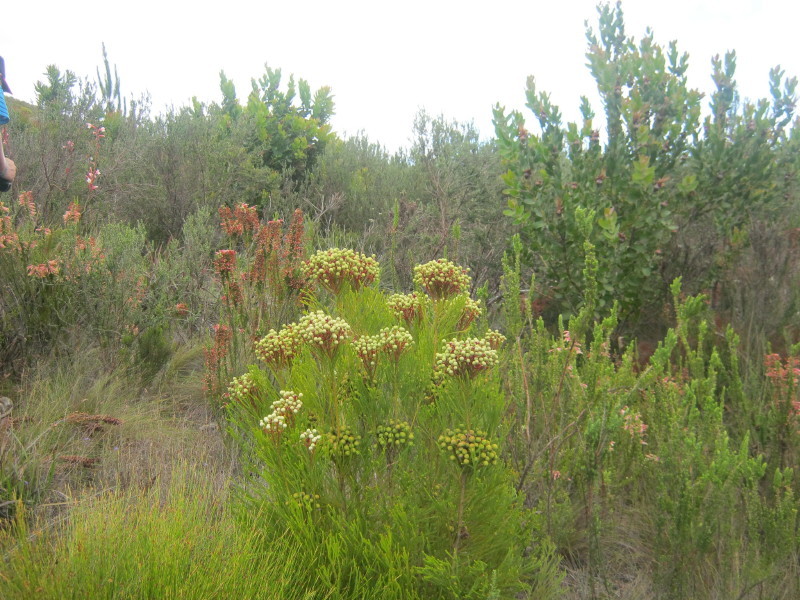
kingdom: Plantae
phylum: Tracheophyta
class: Magnoliopsida
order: Bruniales
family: Bruniaceae
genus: Berzelia
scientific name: Berzelia intermedia
